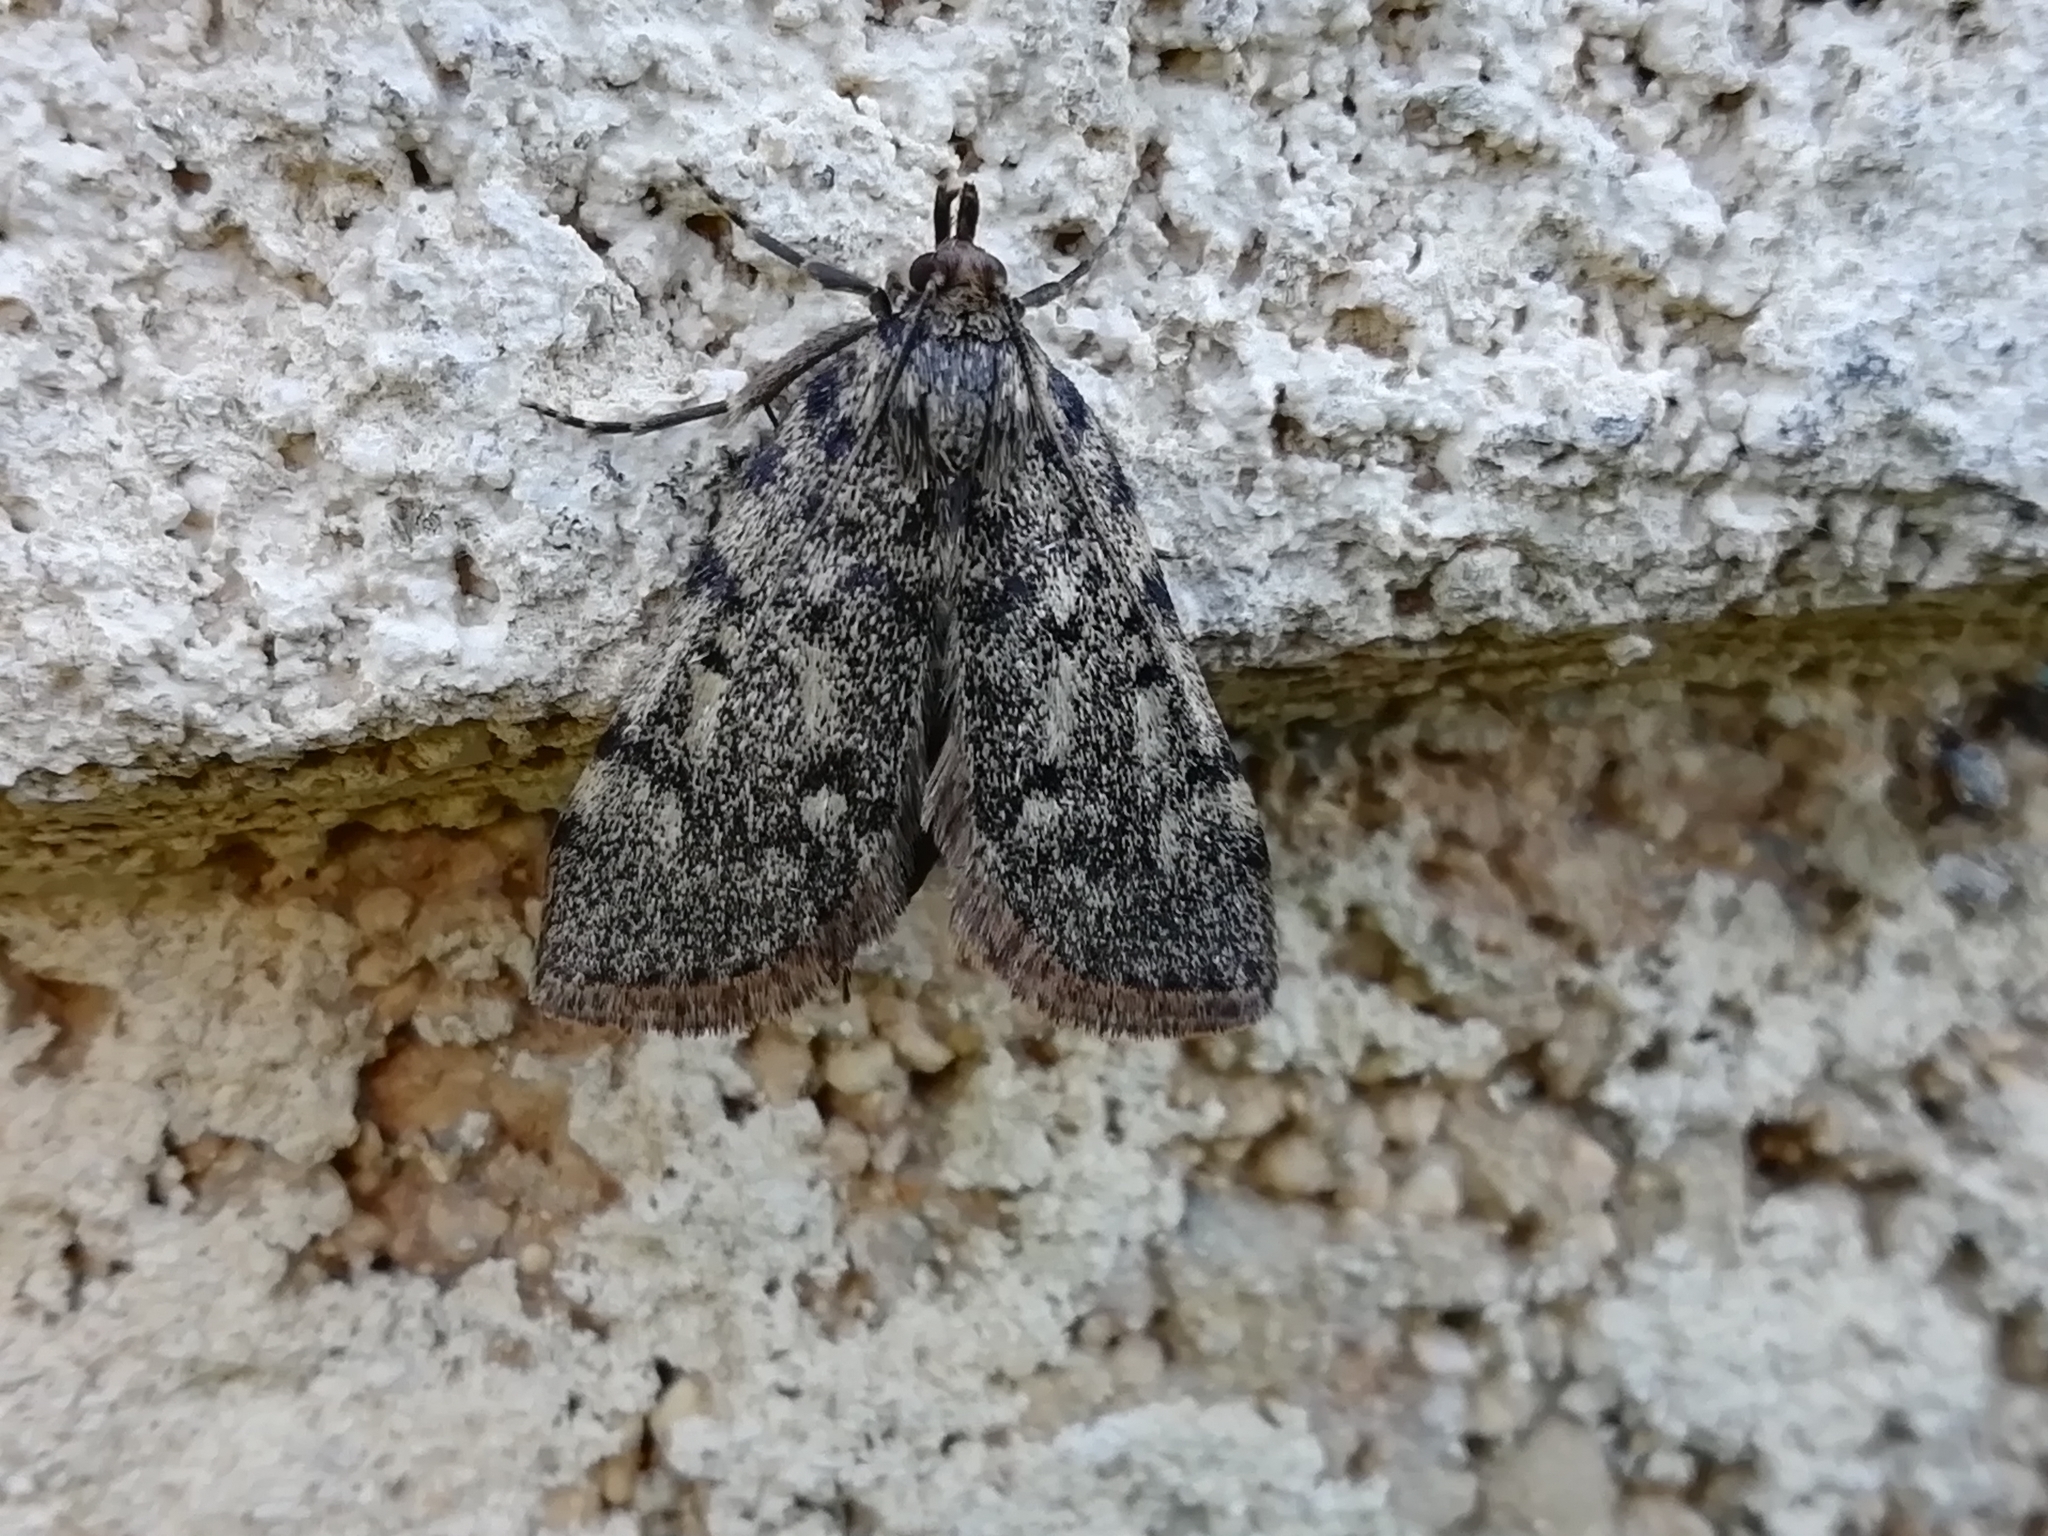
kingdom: Animalia
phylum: Arthropoda
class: Insecta
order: Lepidoptera
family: Pyralidae
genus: Aglossa
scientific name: Aglossa pinguinalis
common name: Large tabby
